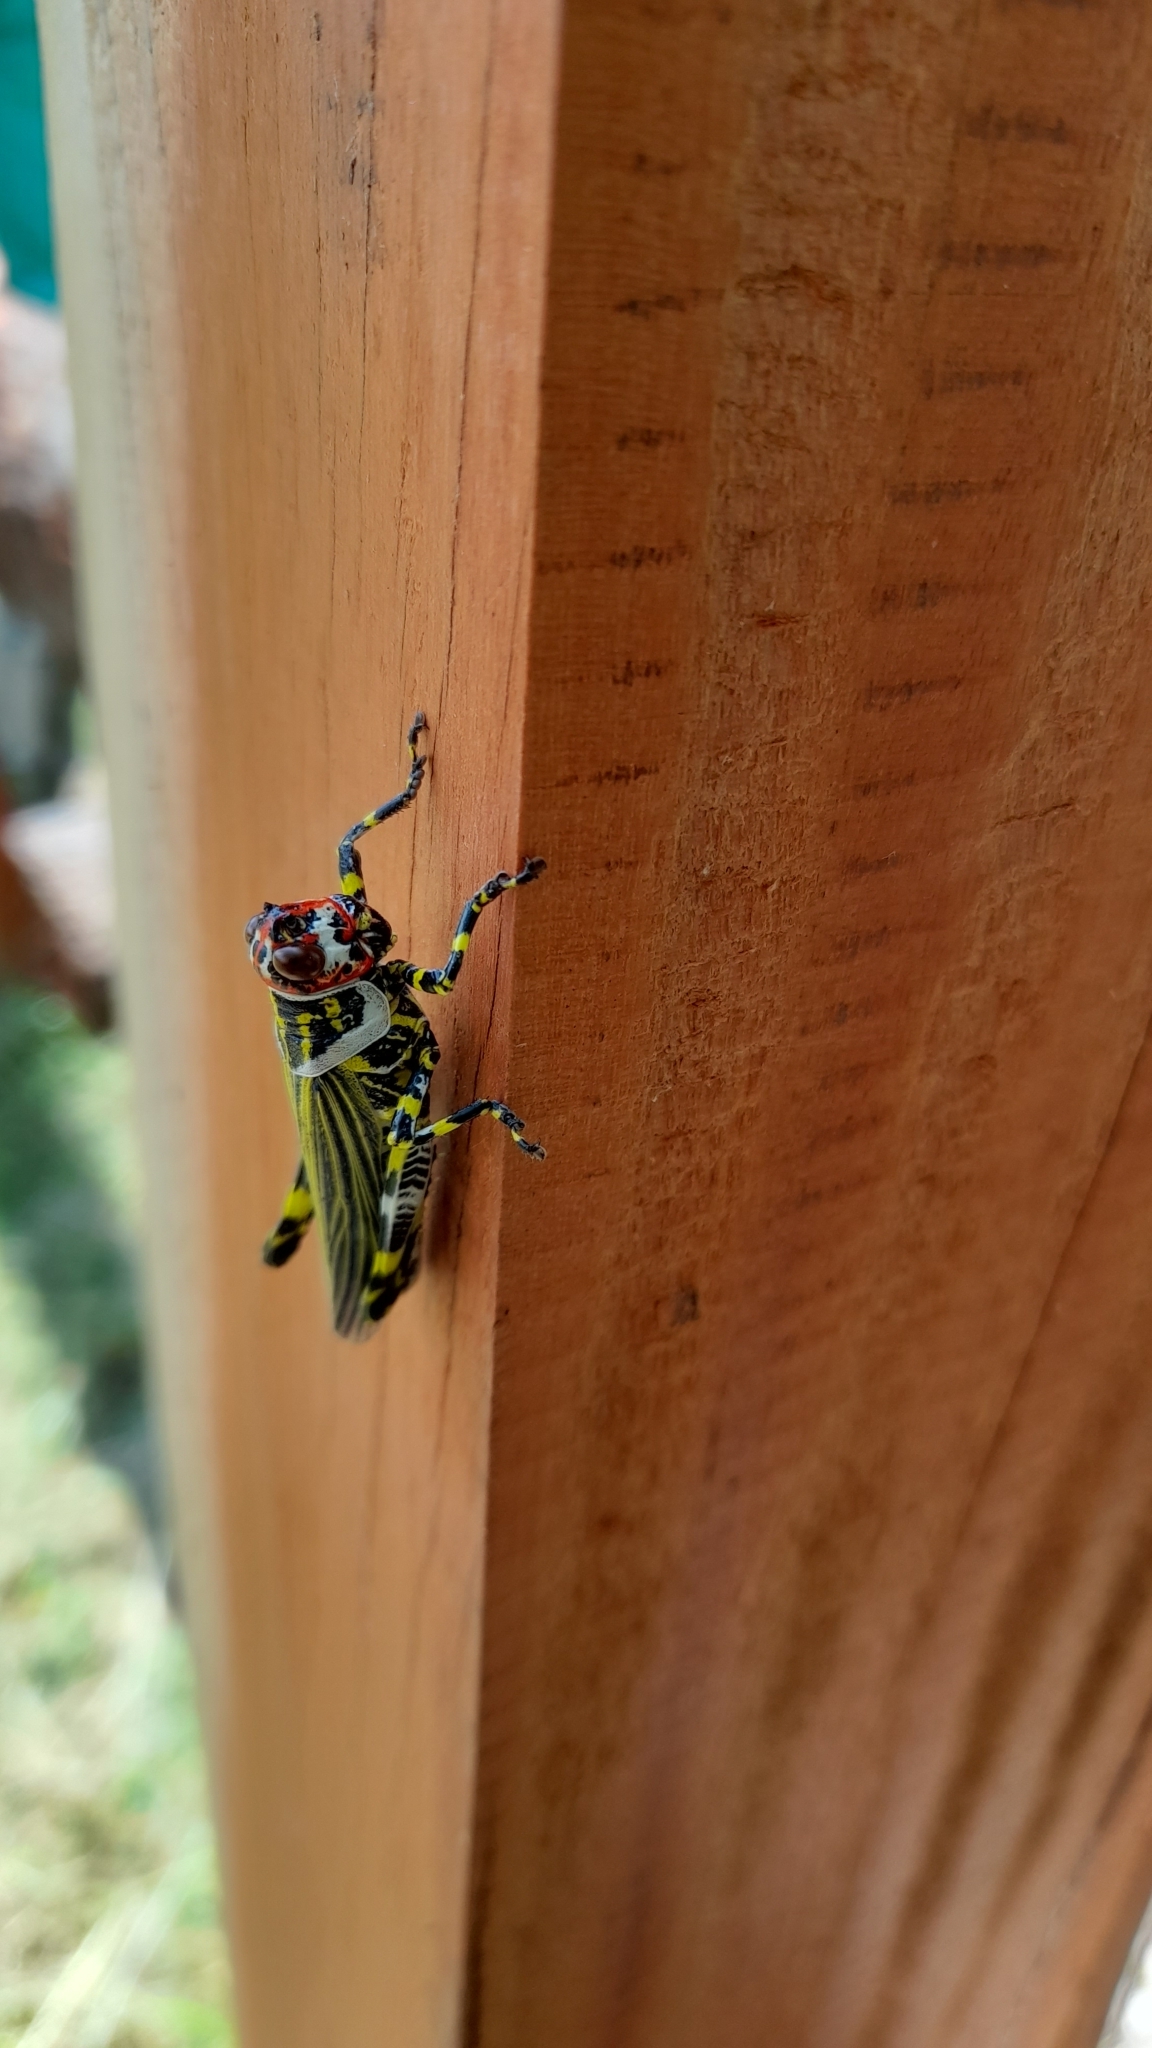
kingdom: Animalia
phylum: Arthropoda
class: Insecta
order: Orthoptera
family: Romaleidae
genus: Zoniopoda
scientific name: Zoniopoda omnicolor
